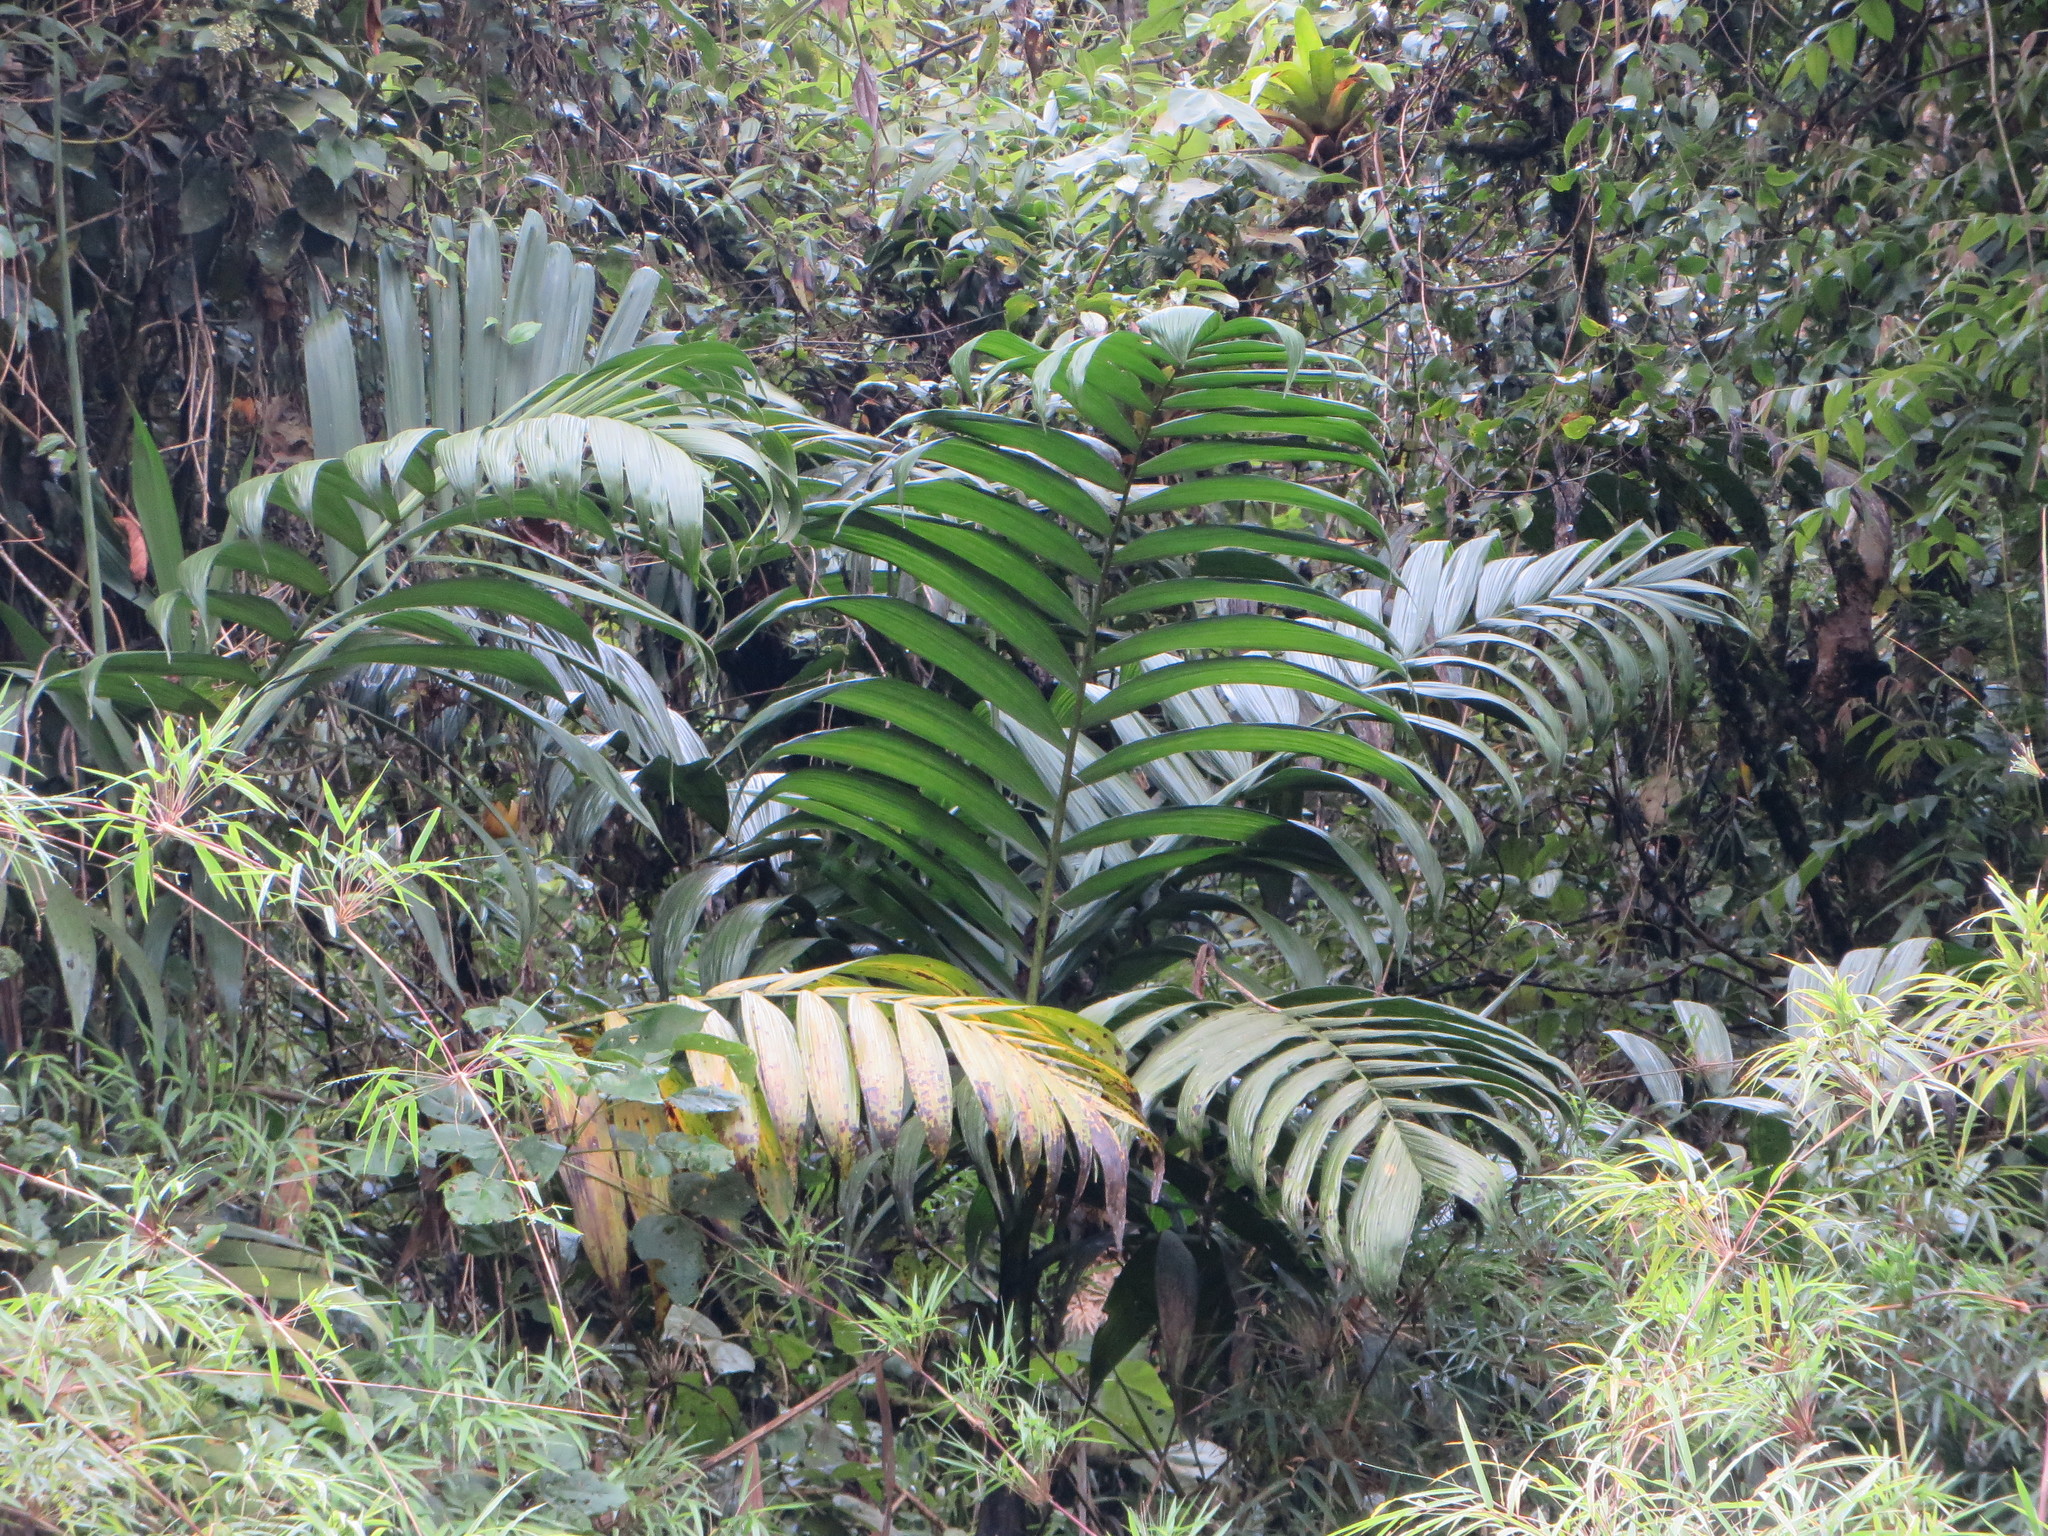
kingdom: Plantae
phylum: Tracheophyta
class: Liliopsida
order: Arecales
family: Arecaceae
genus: Chamaedorea
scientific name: Chamaedorea linearis
